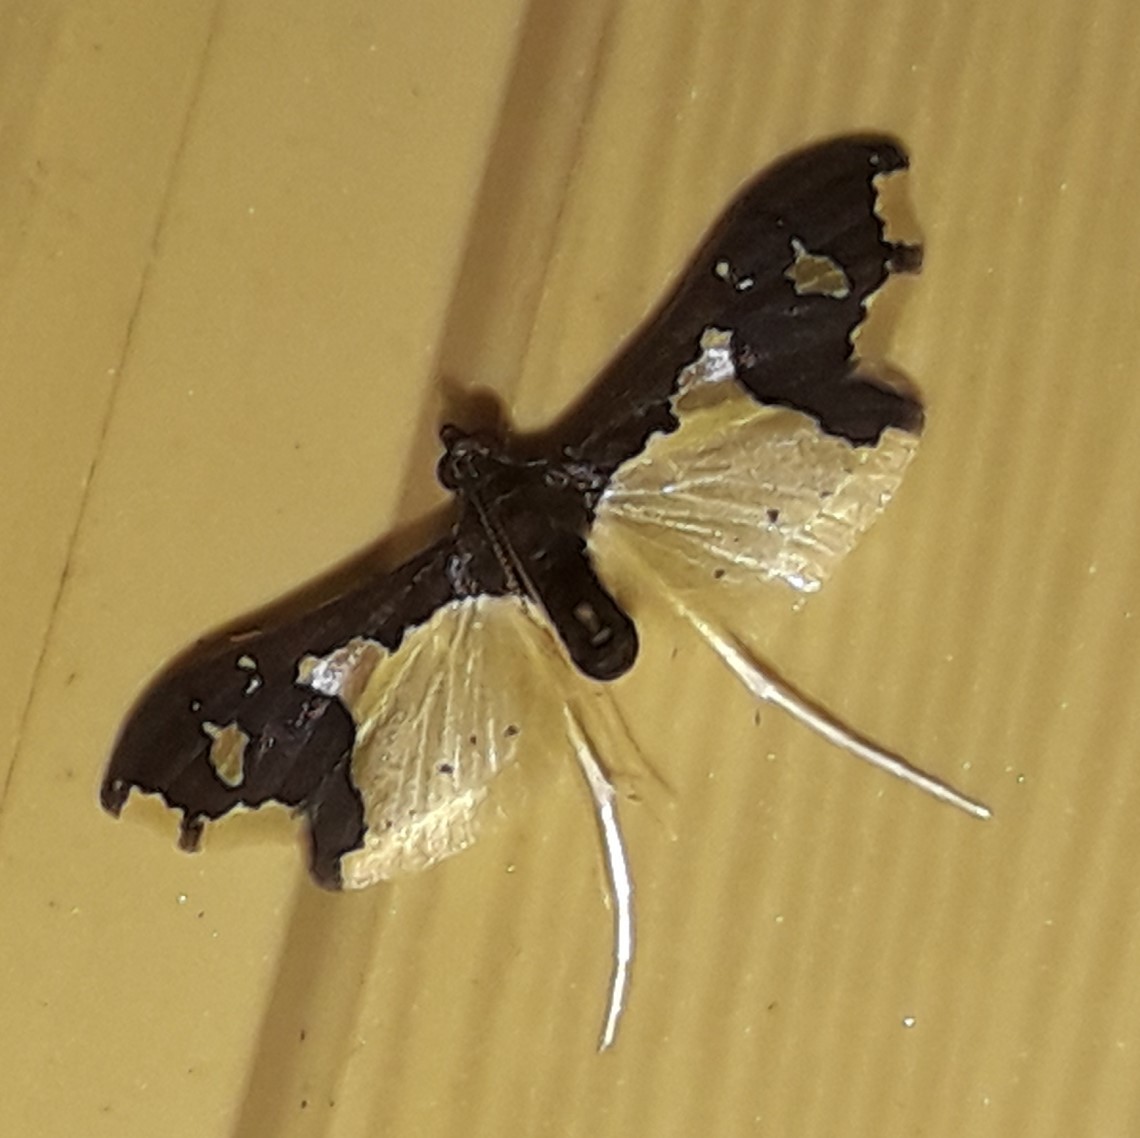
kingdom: Animalia
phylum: Arthropoda
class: Insecta
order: Lepidoptera
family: Crambidae
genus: Gonocausta
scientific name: Gonocausta sabinalis
